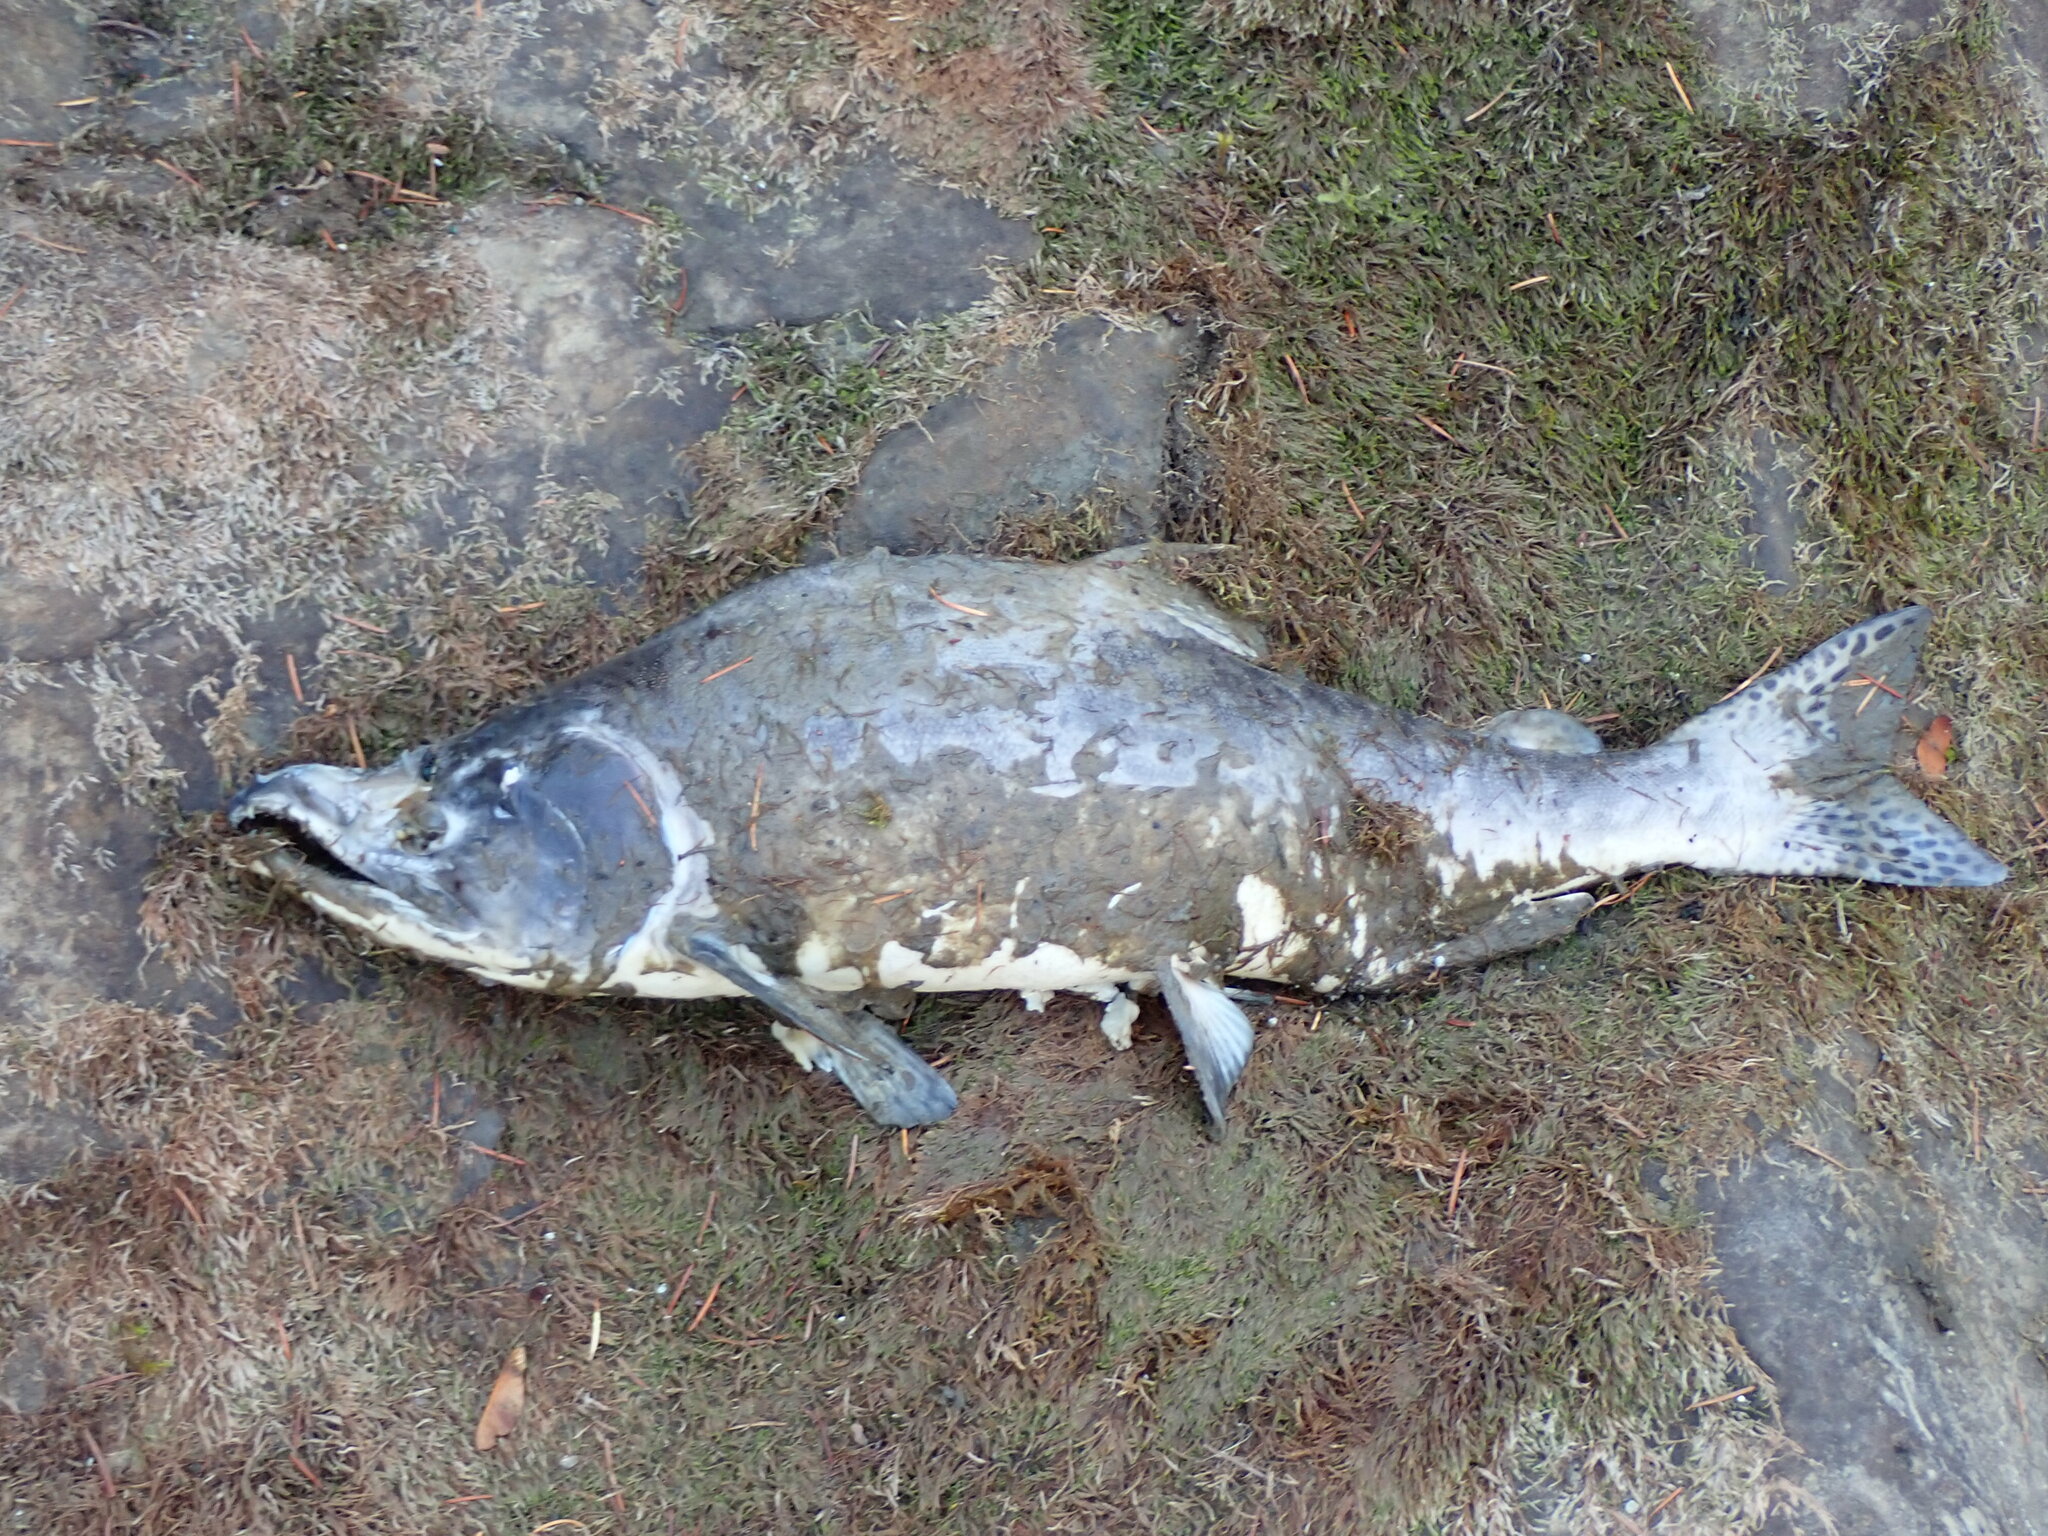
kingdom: Animalia
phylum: Chordata
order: Salmoniformes
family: Salmonidae
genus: Oncorhynchus
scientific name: Oncorhynchus gorbuscha
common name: Humpback salmon
